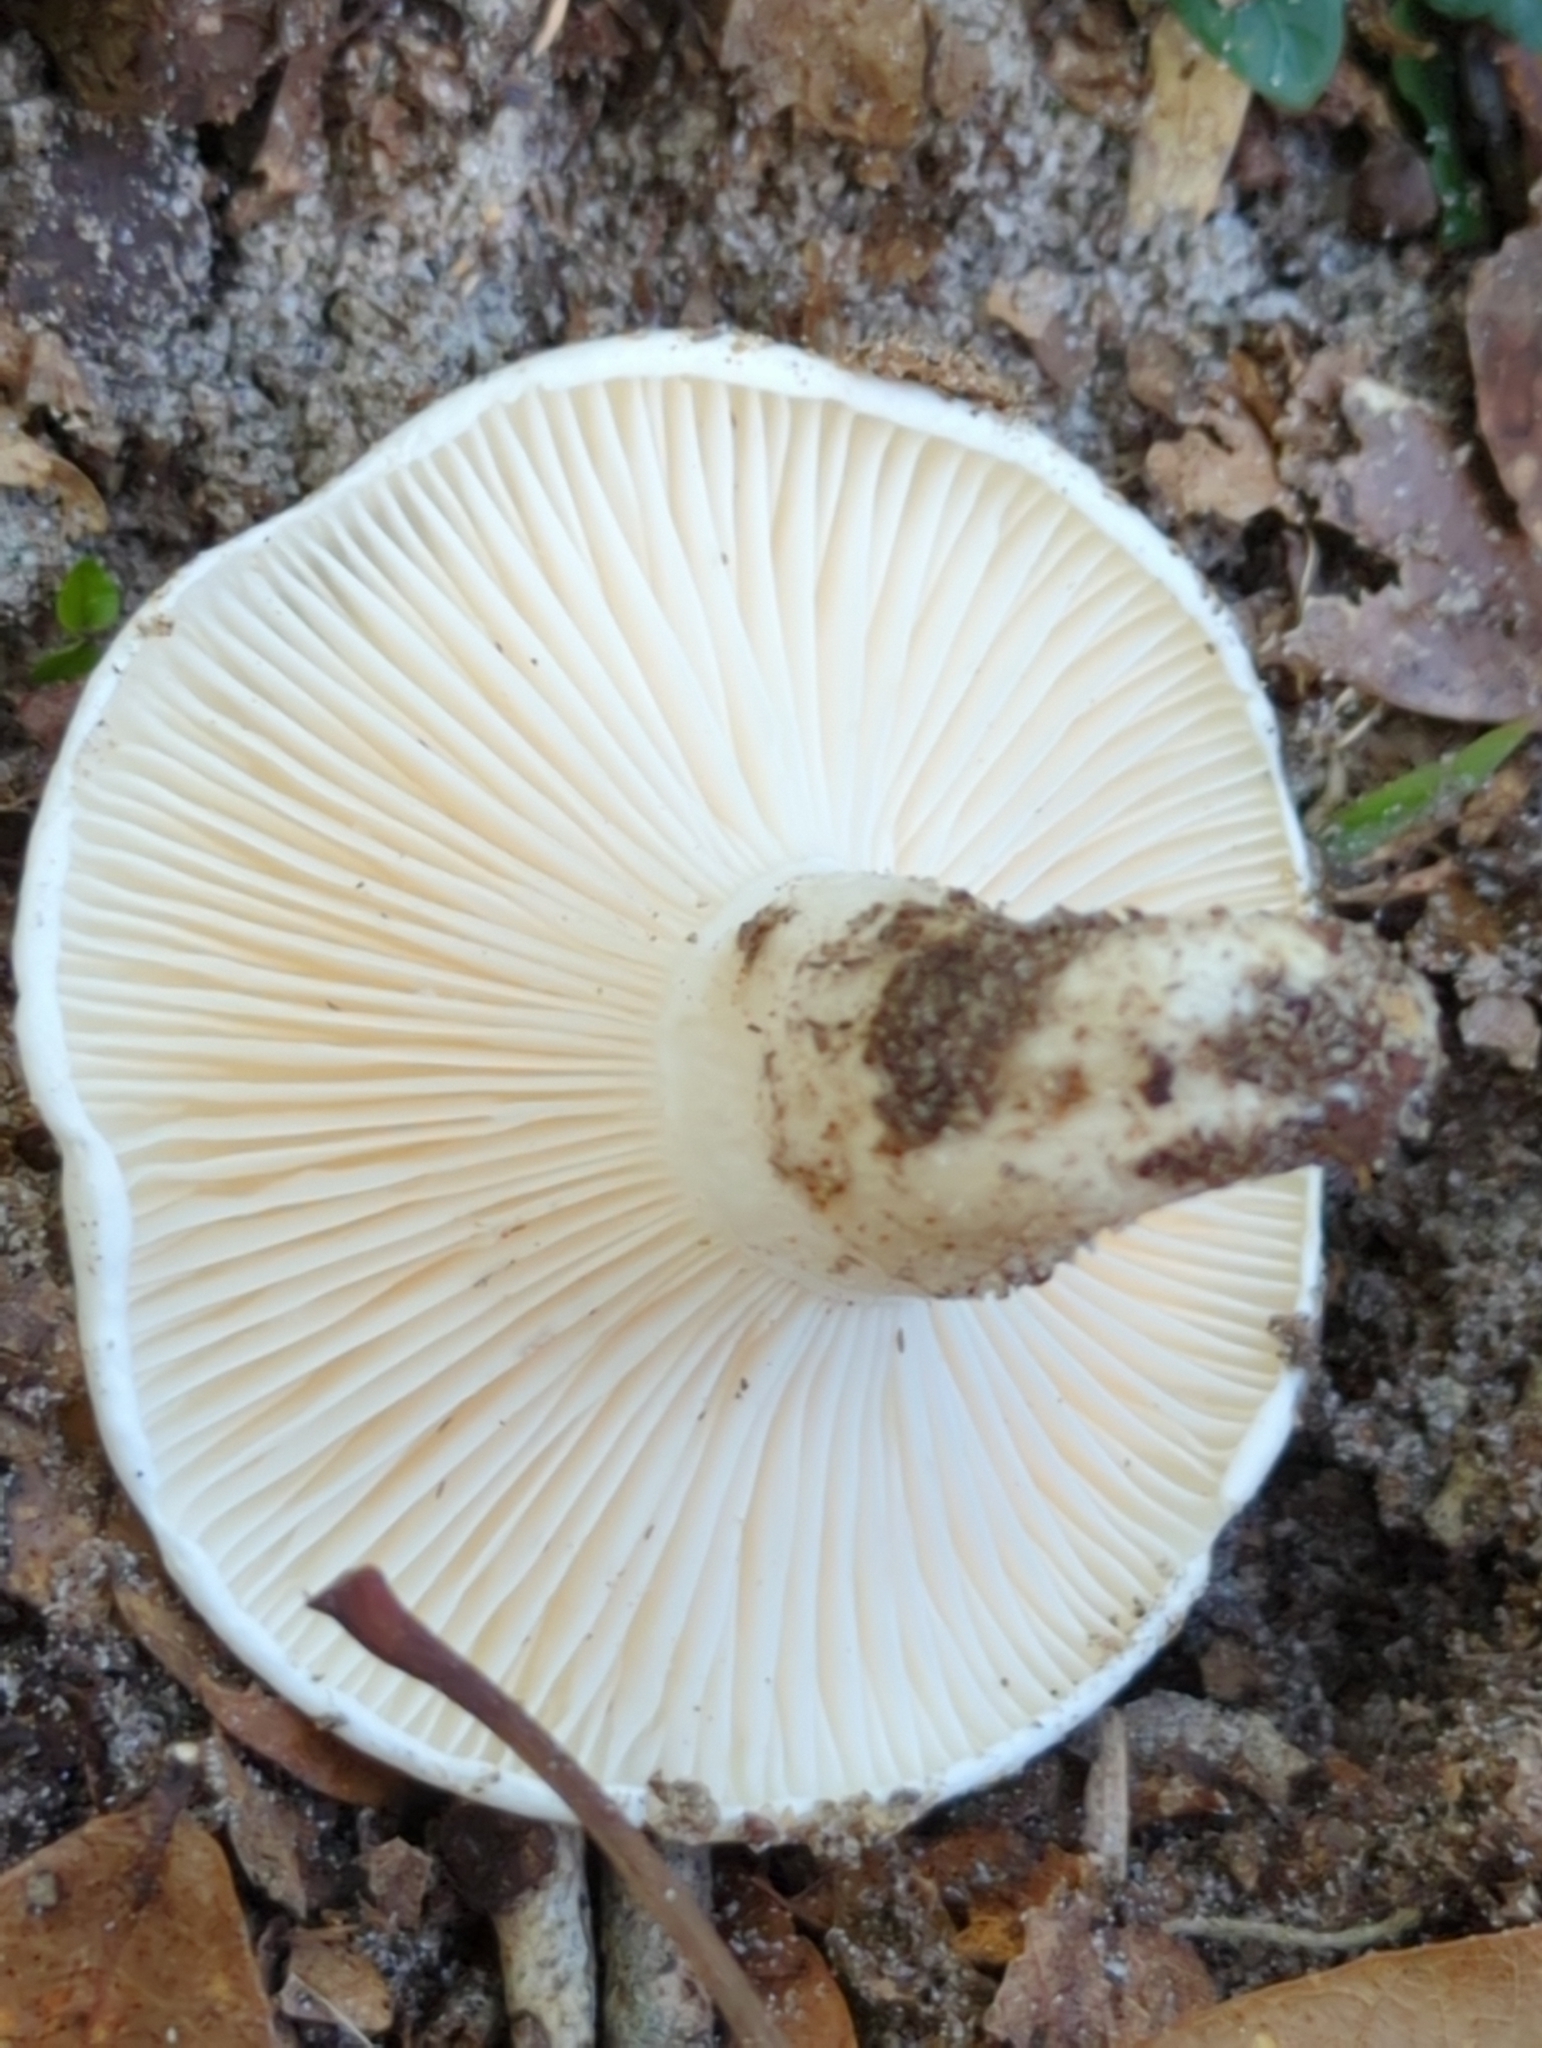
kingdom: Fungi
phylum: Basidiomycota
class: Agaricomycetes
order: Agaricales
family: Hygrophoraceae
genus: Hygrophorus
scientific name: Hygrophorus subsordidus
